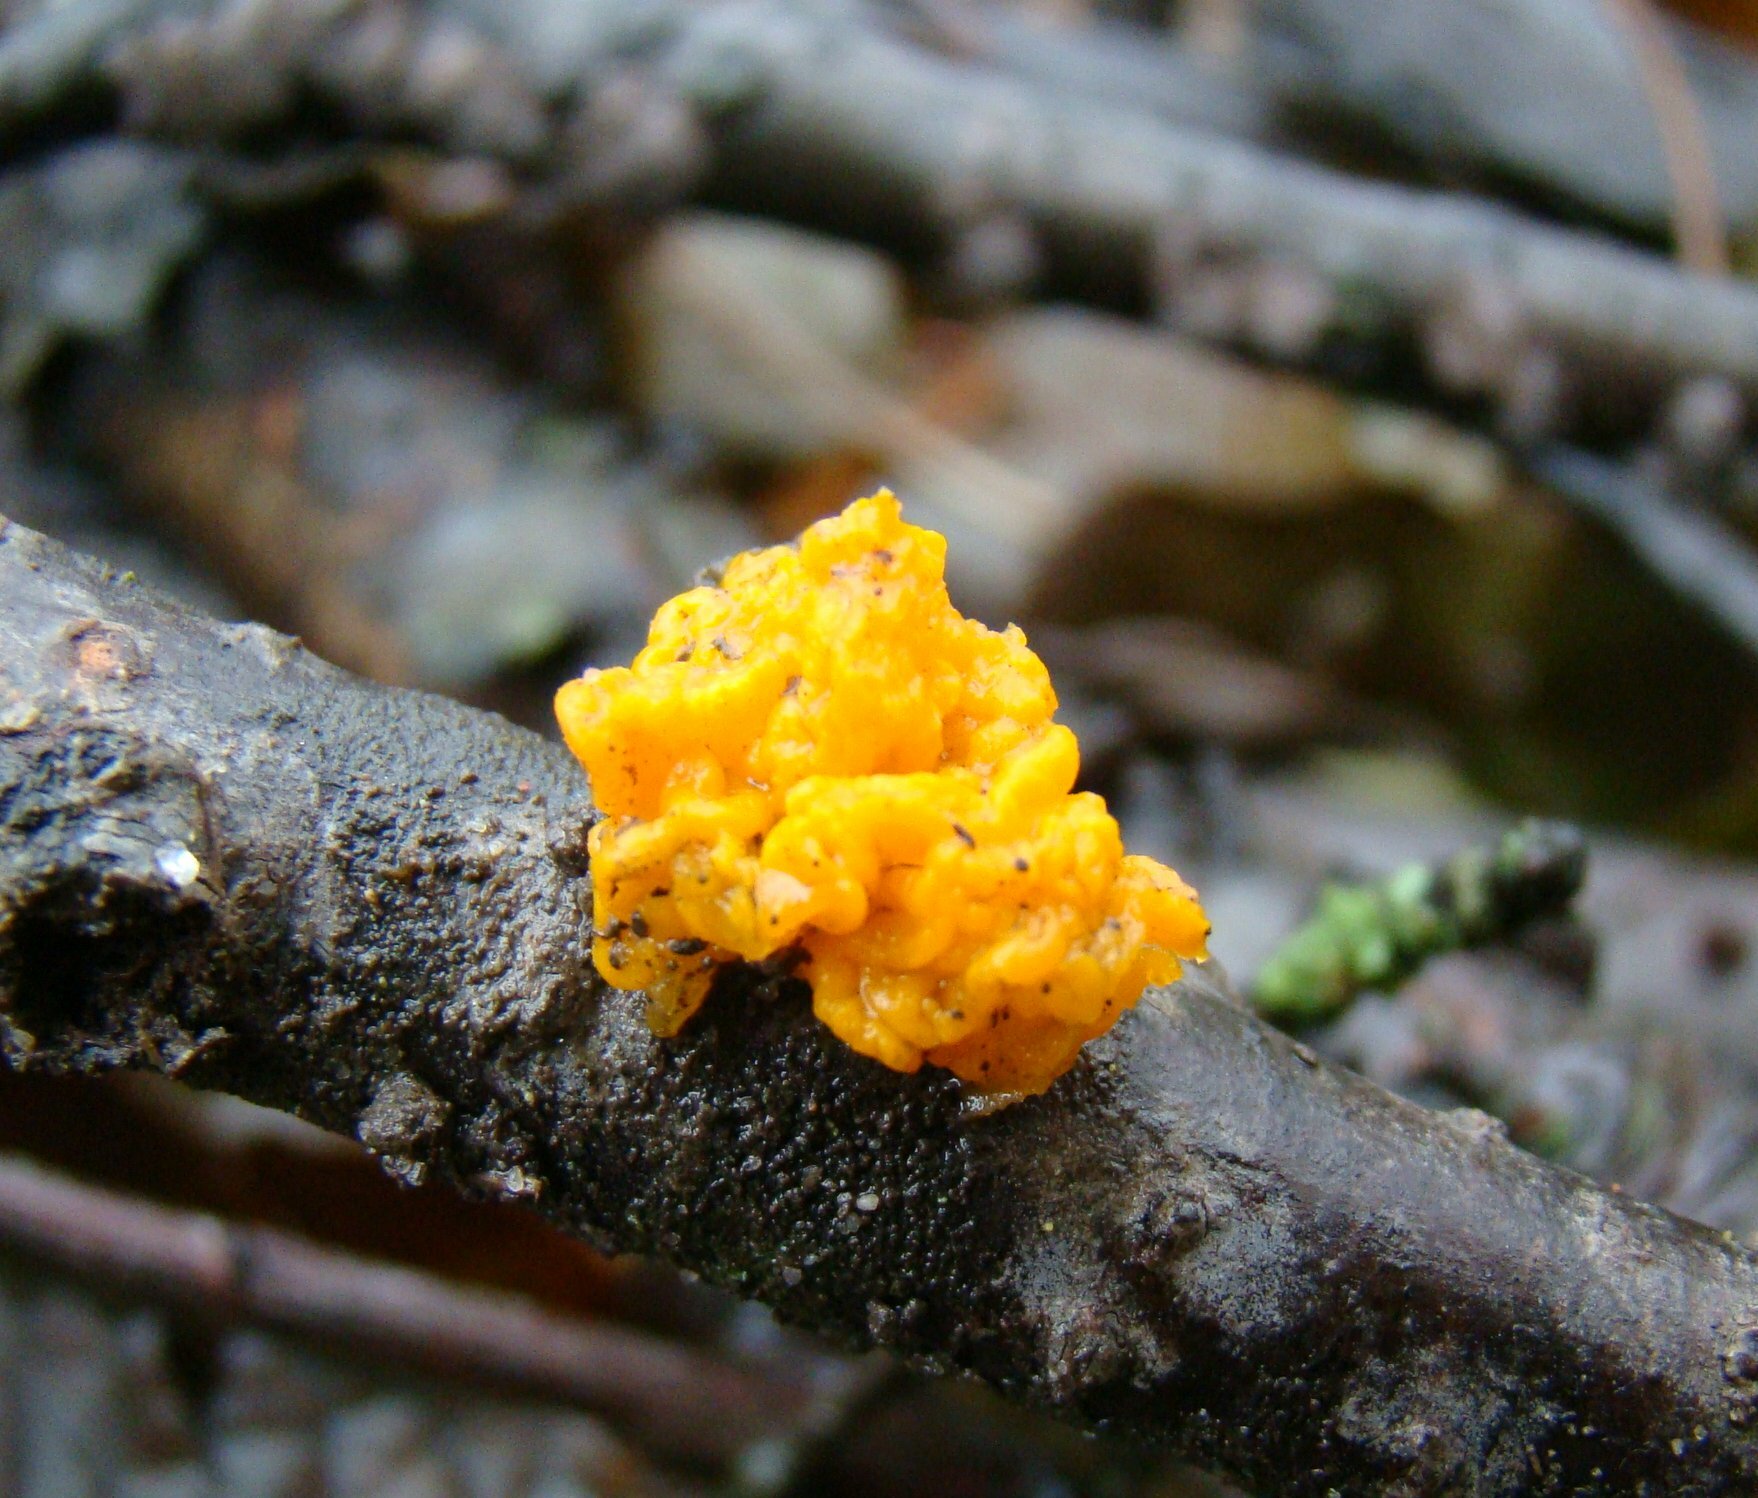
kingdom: Fungi
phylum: Basidiomycota
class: Tremellomycetes
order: Tremellales
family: Tremellaceae
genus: Tremella
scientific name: Tremella mesenterica
